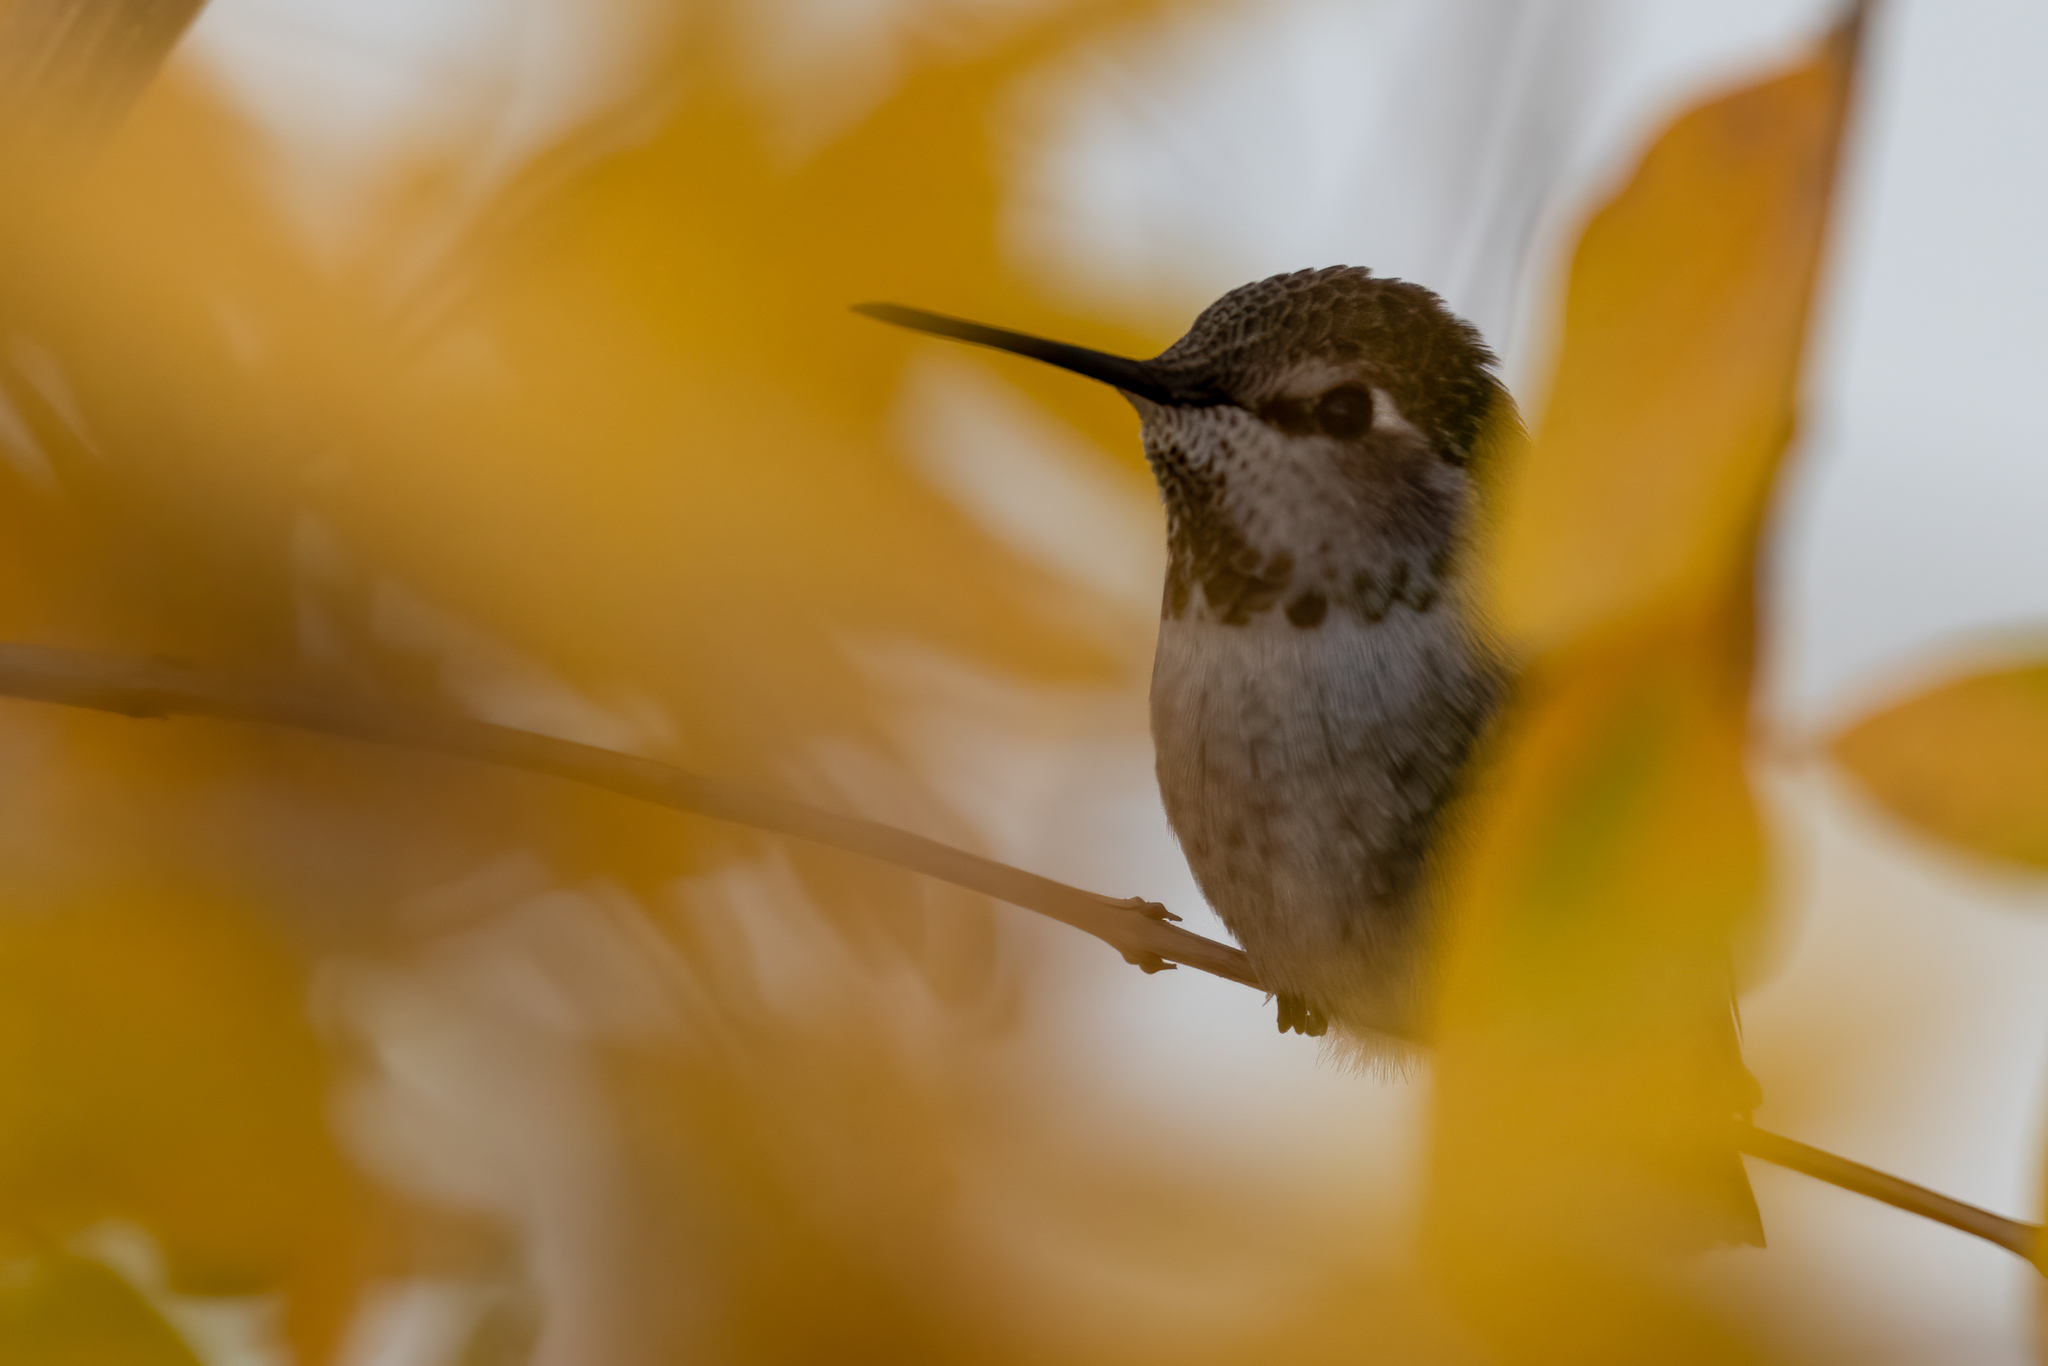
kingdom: Animalia
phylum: Chordata
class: Aves
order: Apodiformes
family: Trochilidae
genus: Calypte
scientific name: Calypte anna
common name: Anna's hummingbird
